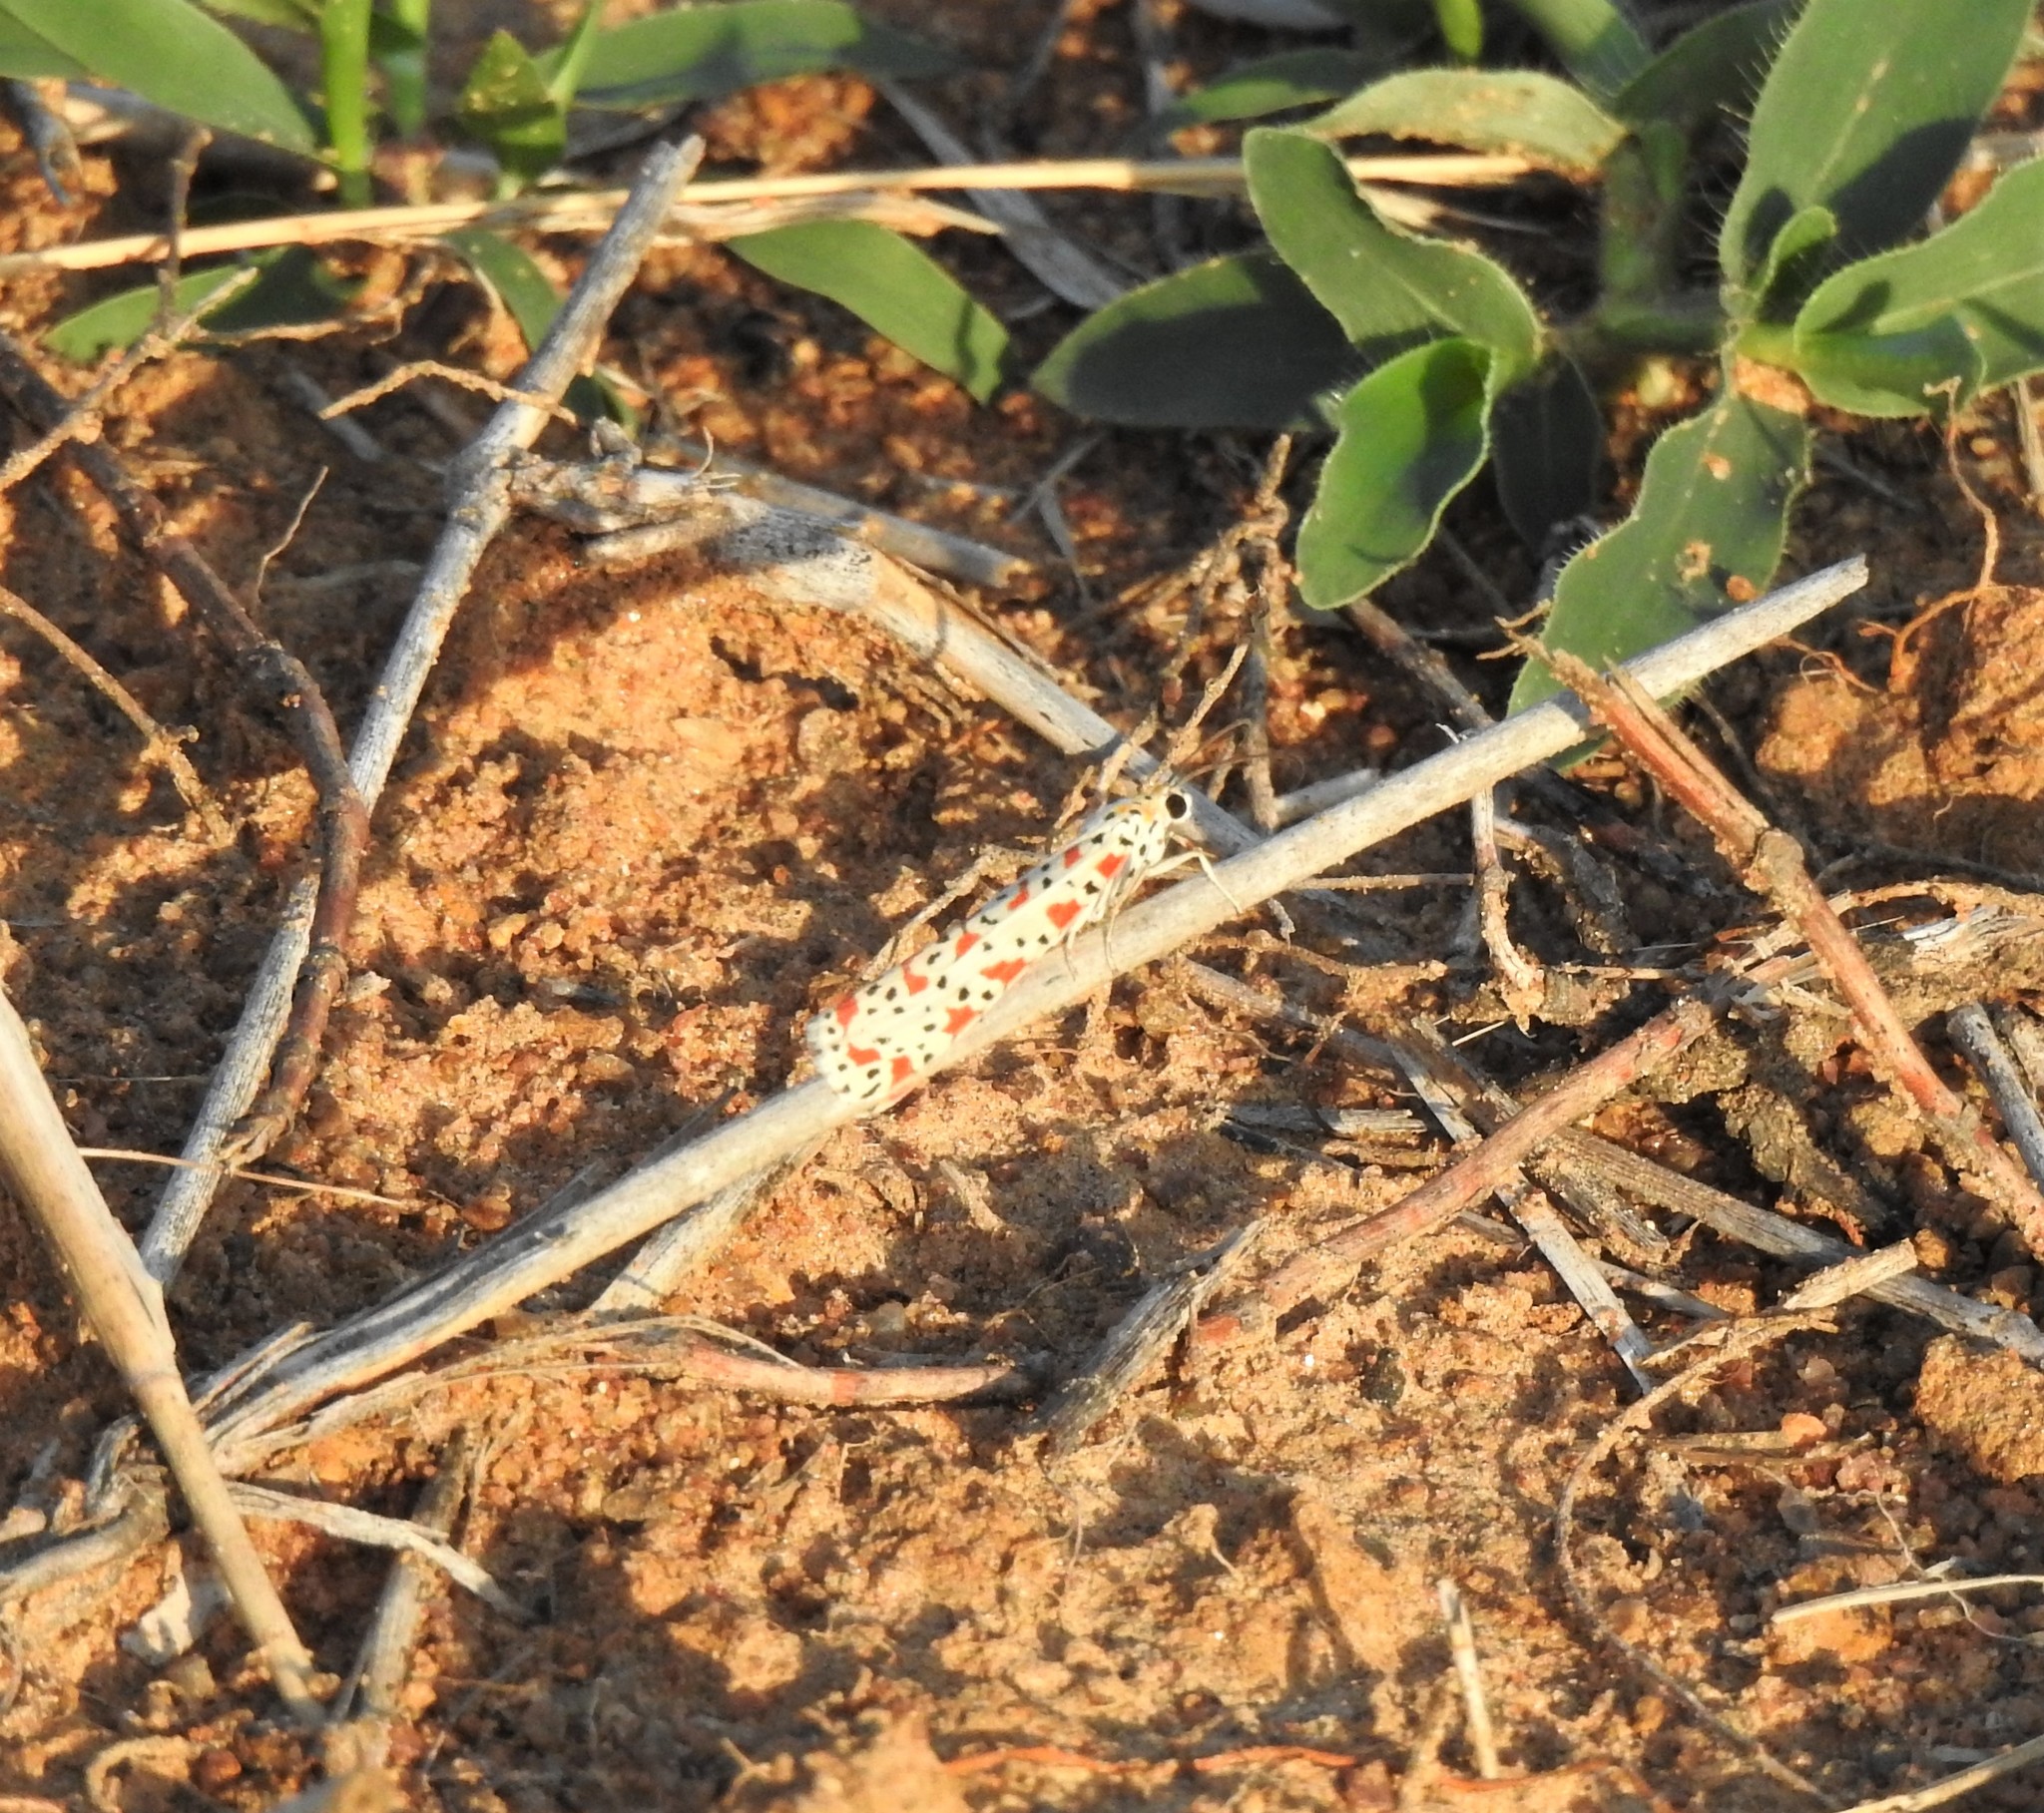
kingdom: Animalia
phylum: Arthropoda
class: Insecta
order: Lepidoptera
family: Erebidae
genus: Utetheisa
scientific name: Utetheisa lotrix
